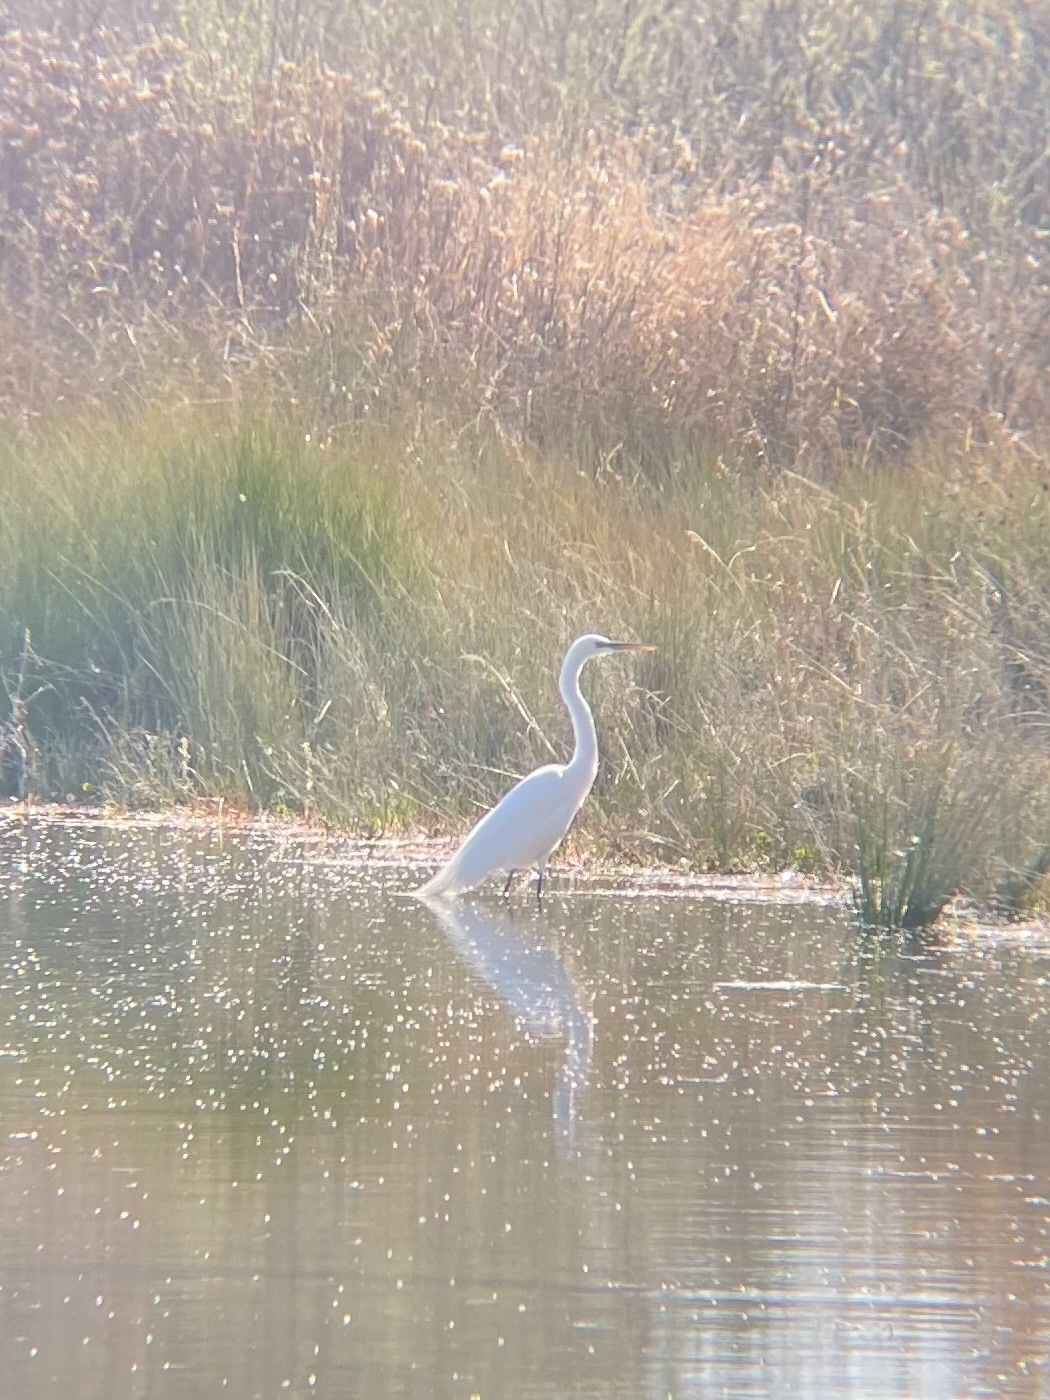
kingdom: Animalia
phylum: Chordata
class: Aves
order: Pelecaniformes
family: Ardeidae
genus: Ardea
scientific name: Ardea alba
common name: Great egret
